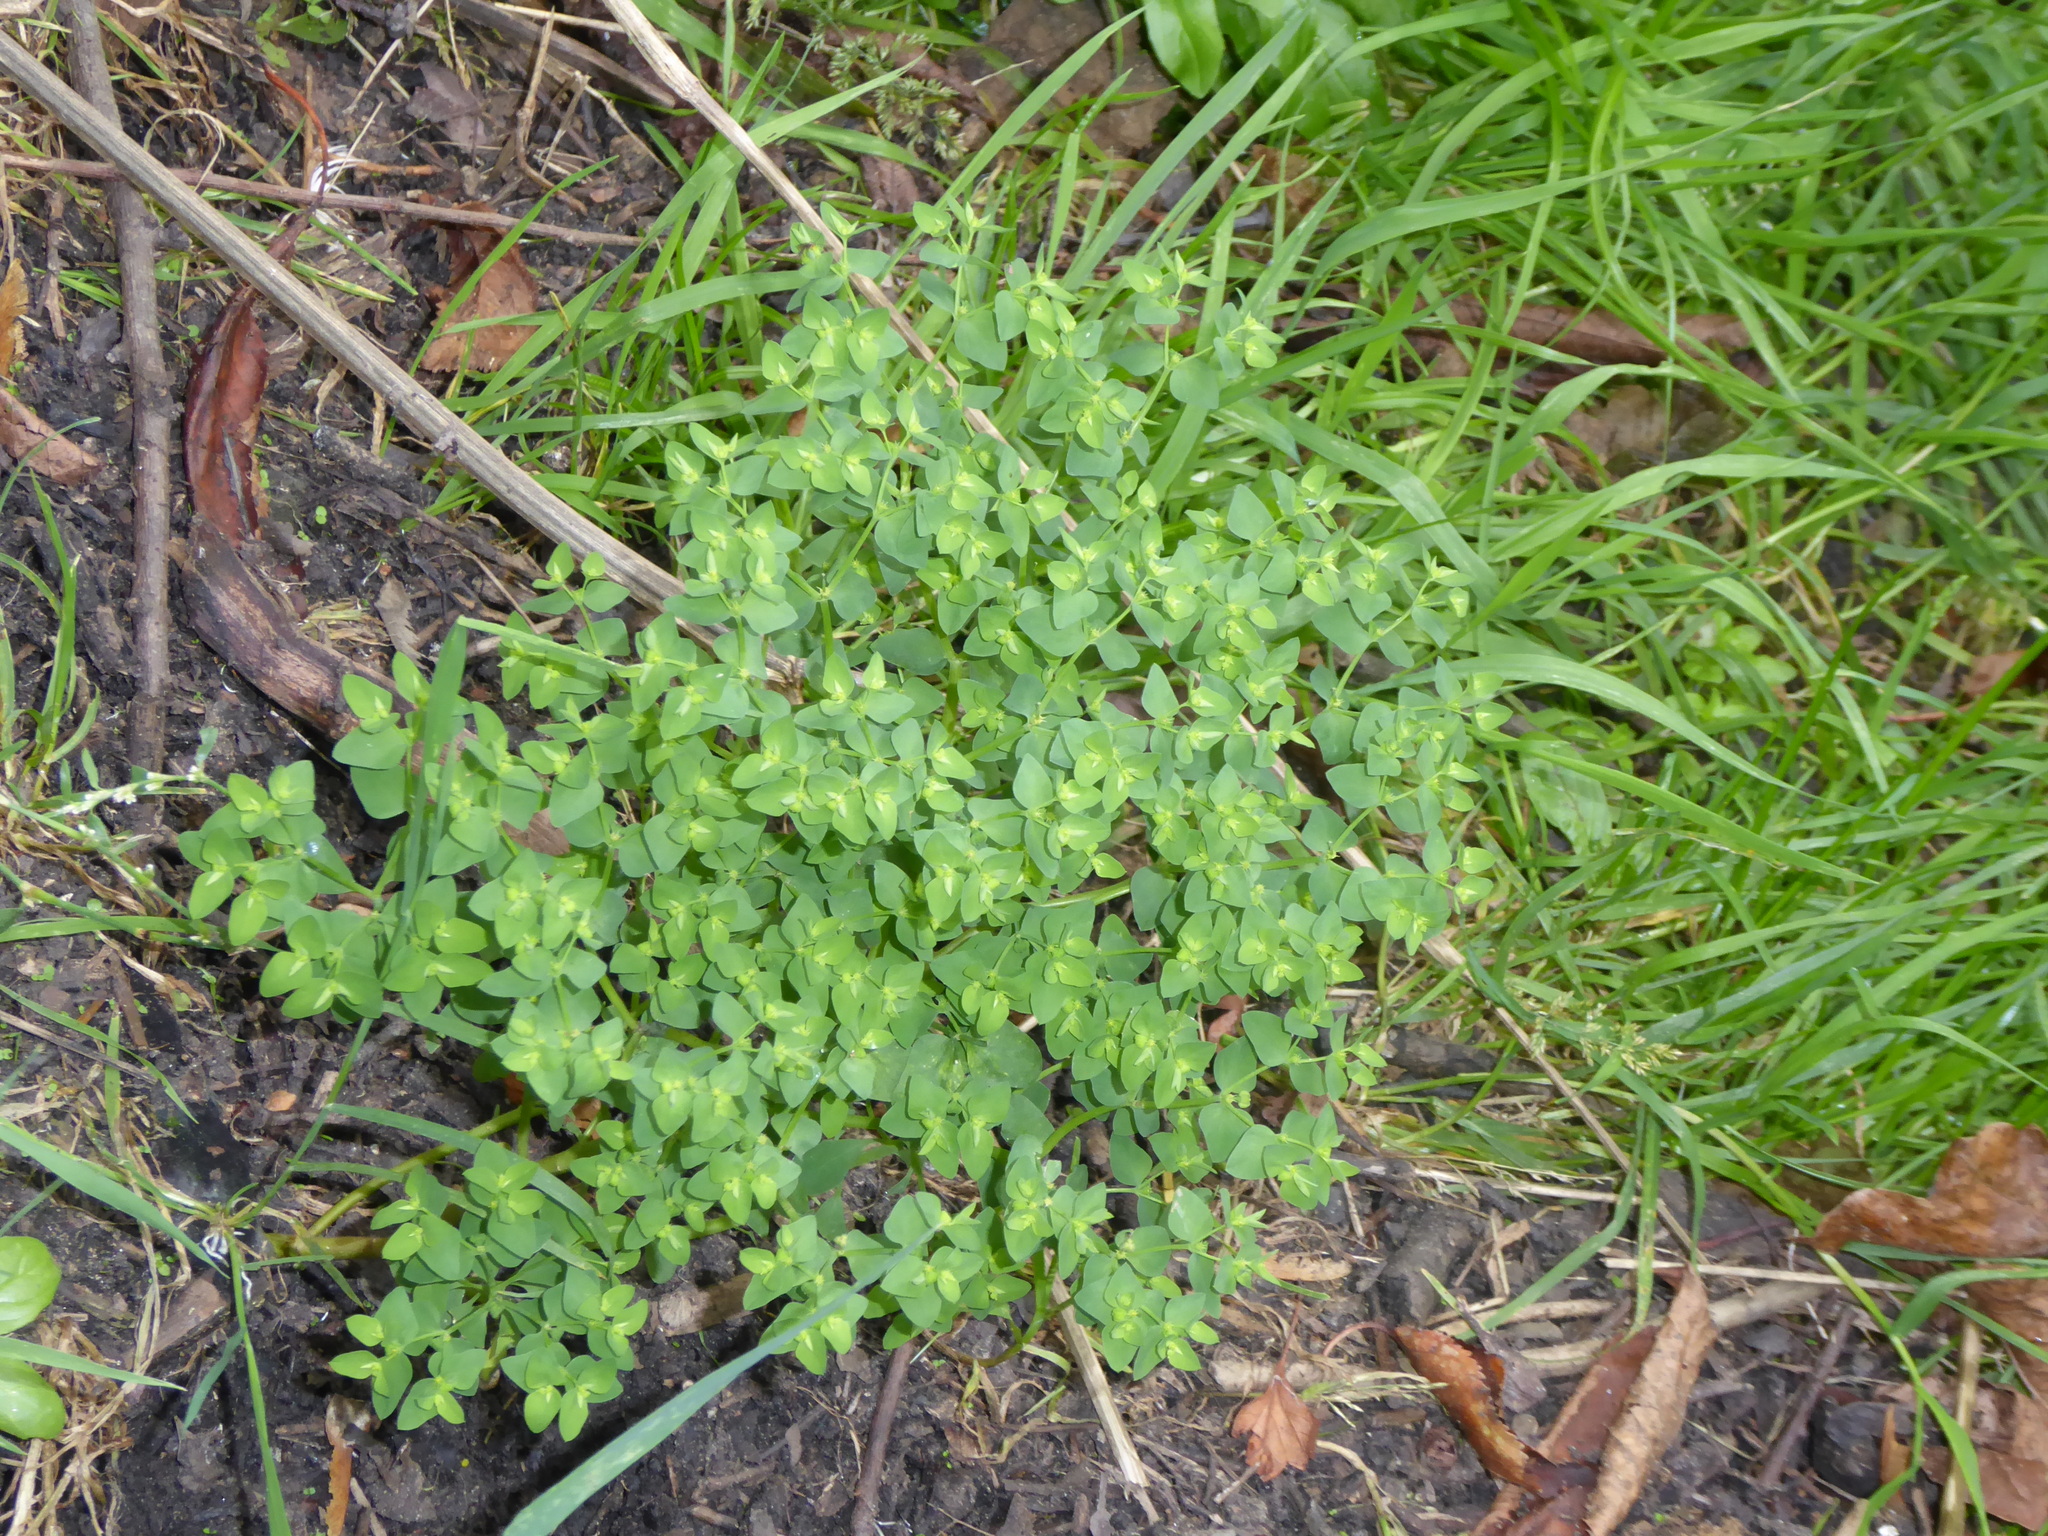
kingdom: Plantae
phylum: Tracheophyta
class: Magnoliopsida
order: Malpighiales
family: Euphorbiaceae
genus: Euphorbia
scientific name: Euphorbia peplus
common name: Petty spurge
